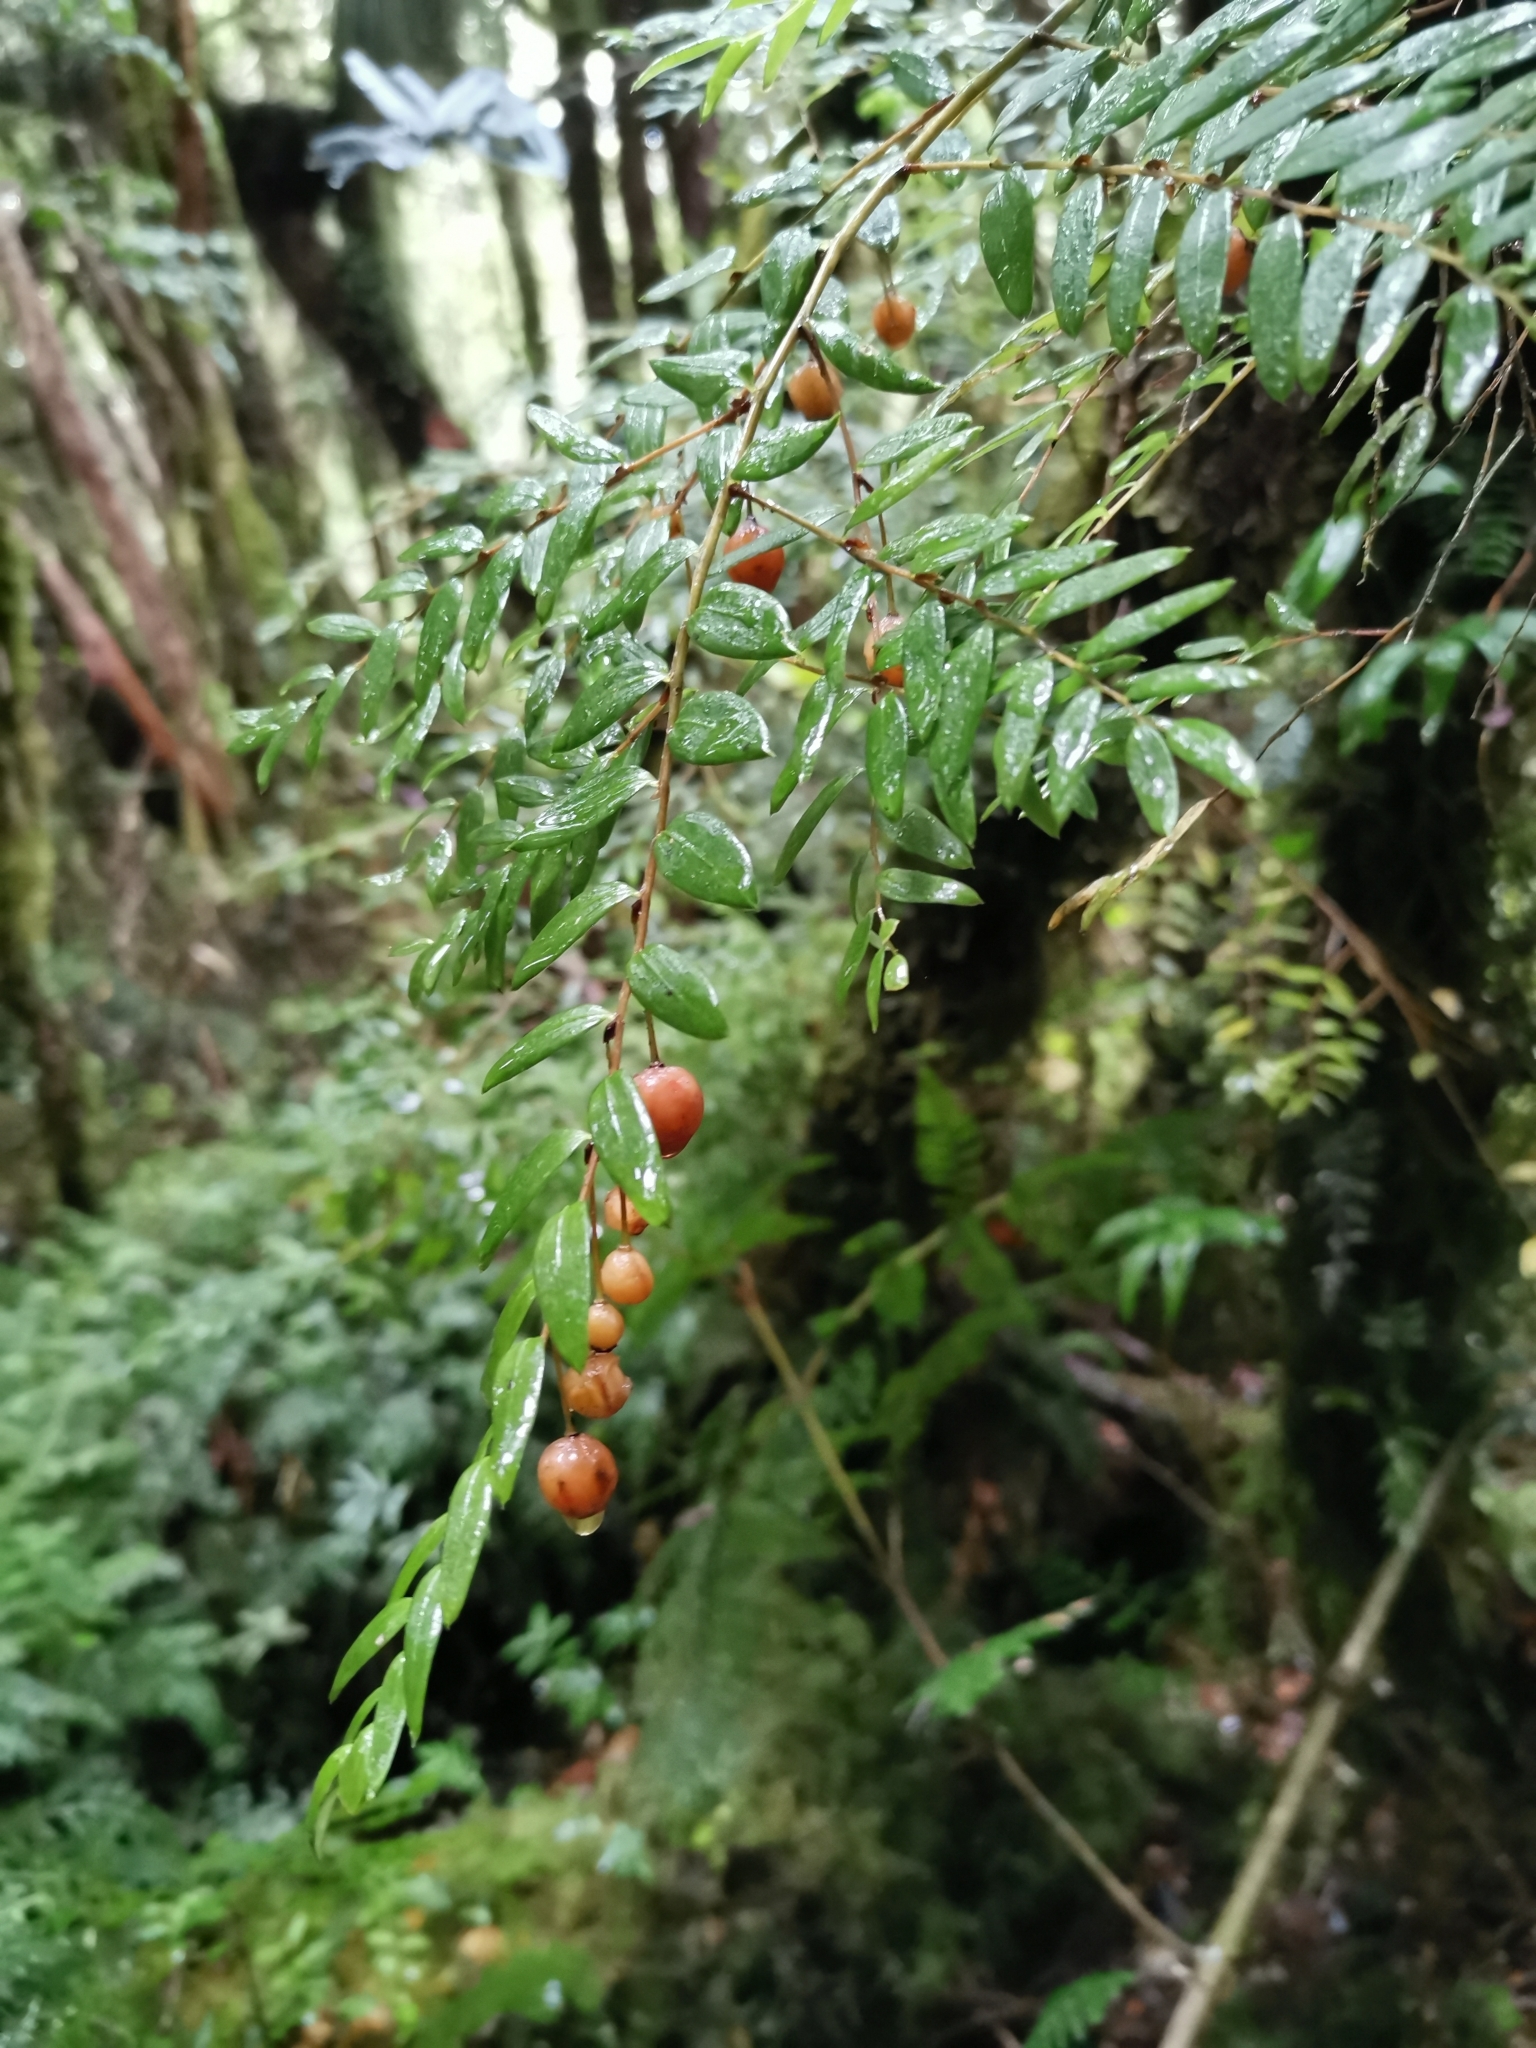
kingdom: Plantae
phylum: Tracheophyta
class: Liliopsida
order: Liliales
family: Alstroemeriaceae
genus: Luzuriaga
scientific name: Luzuriaga polyphylla
